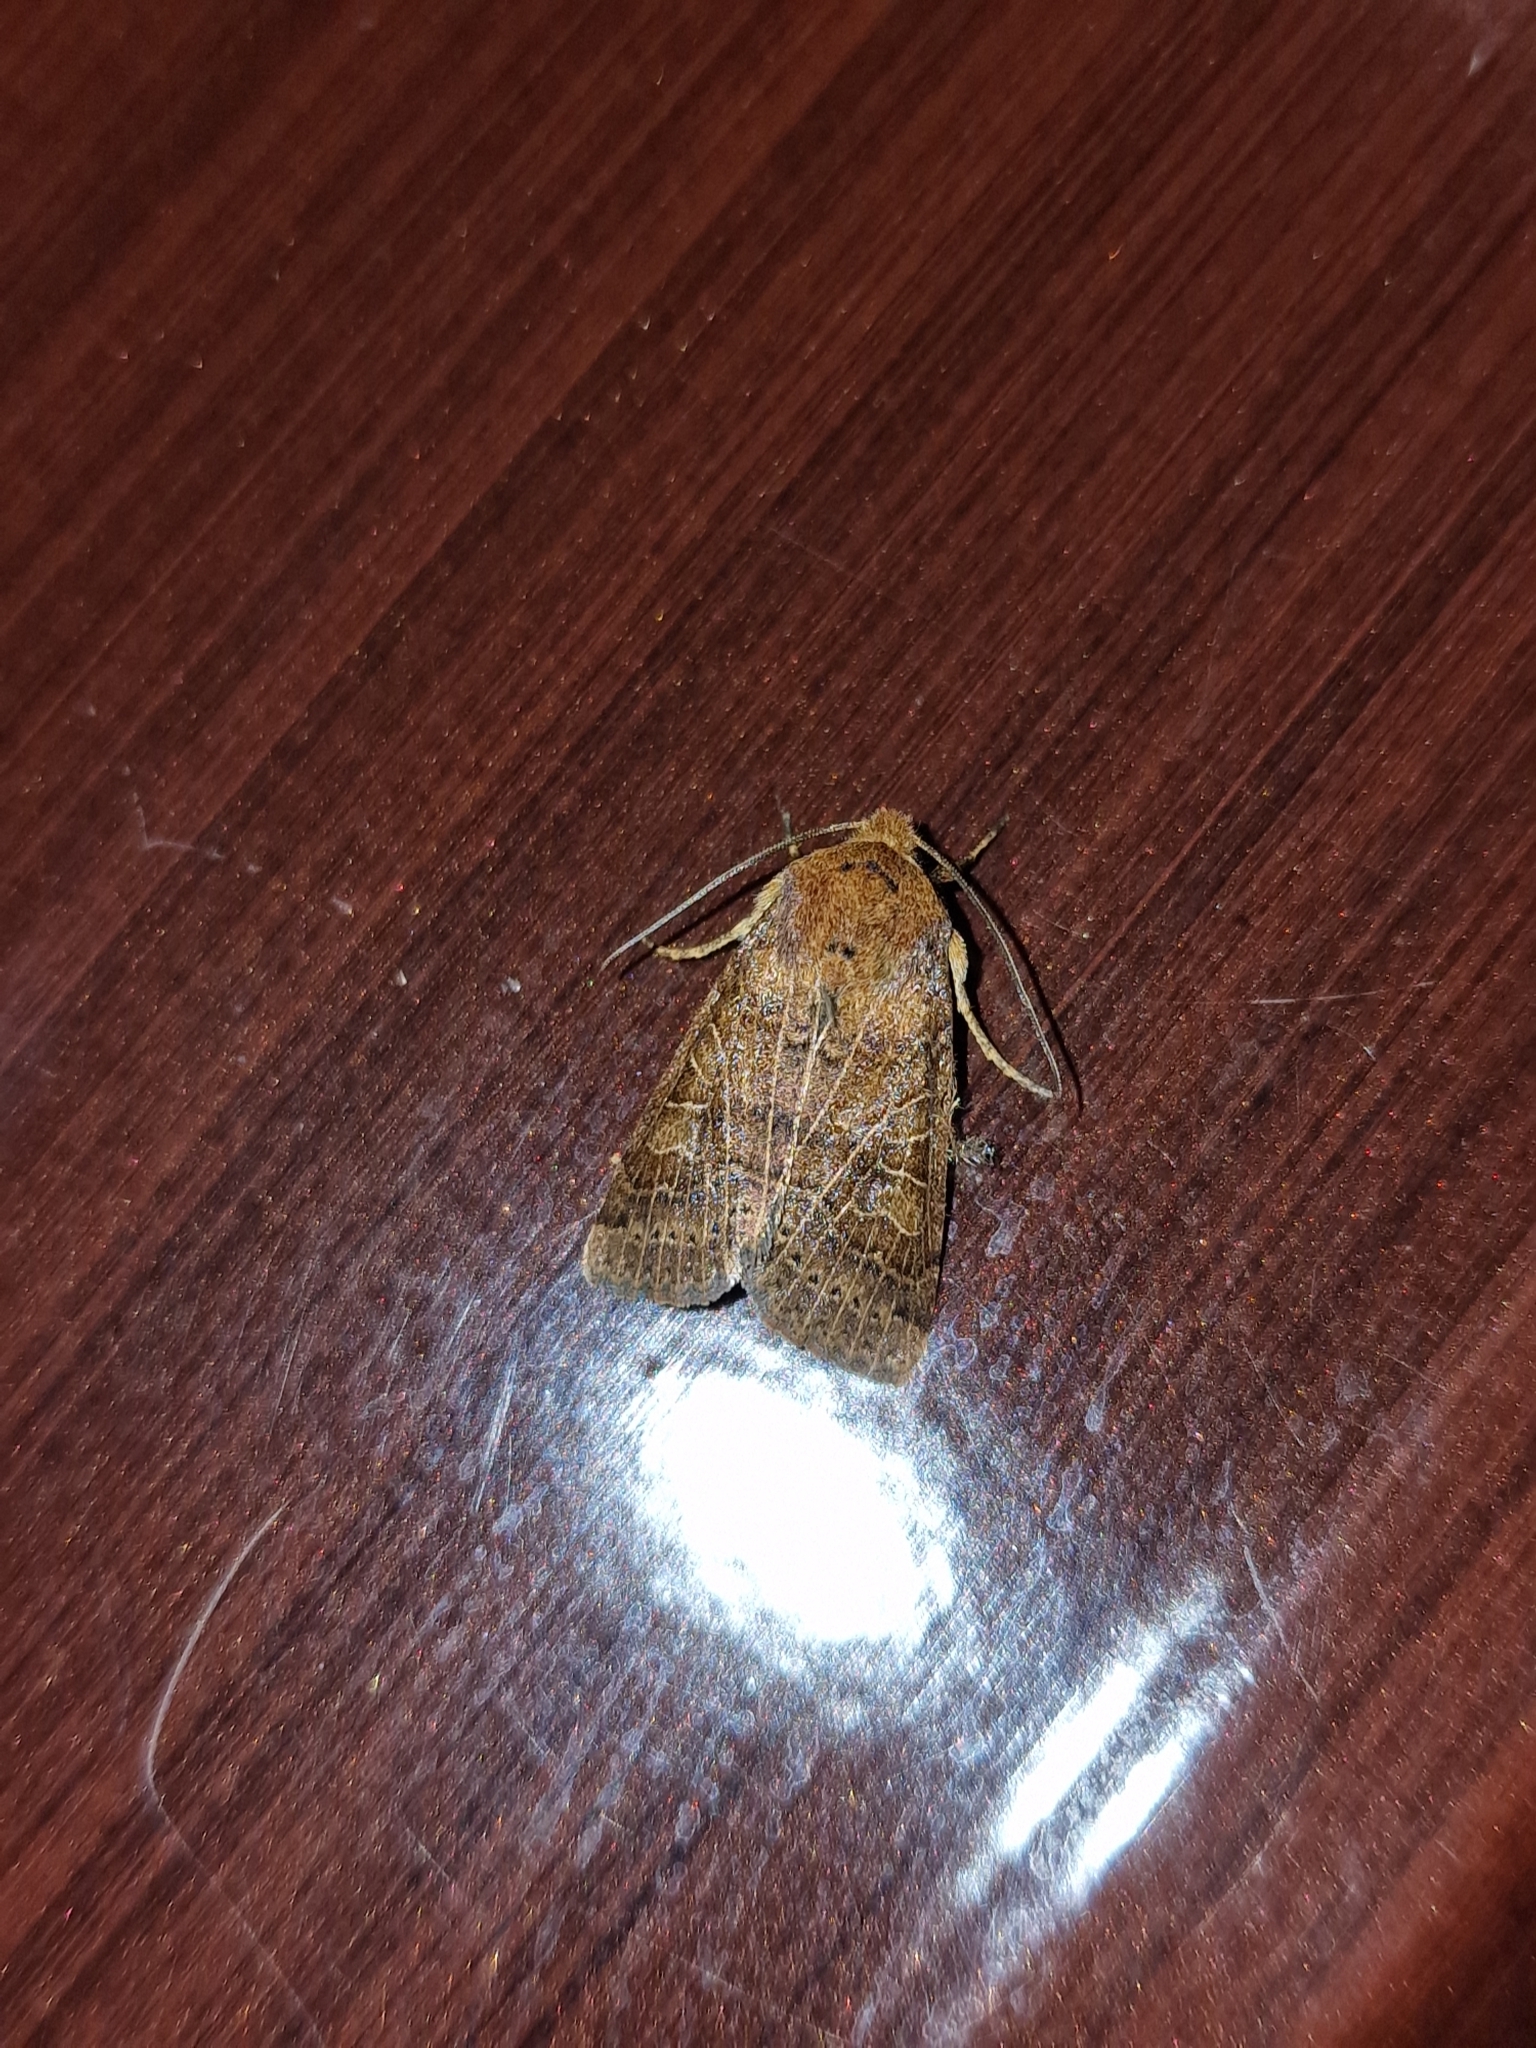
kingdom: Animalia
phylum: Arthropoda
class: Insecta
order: Lepidoptera
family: Noctuidae
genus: Agrochola
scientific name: Agrochola nitida
